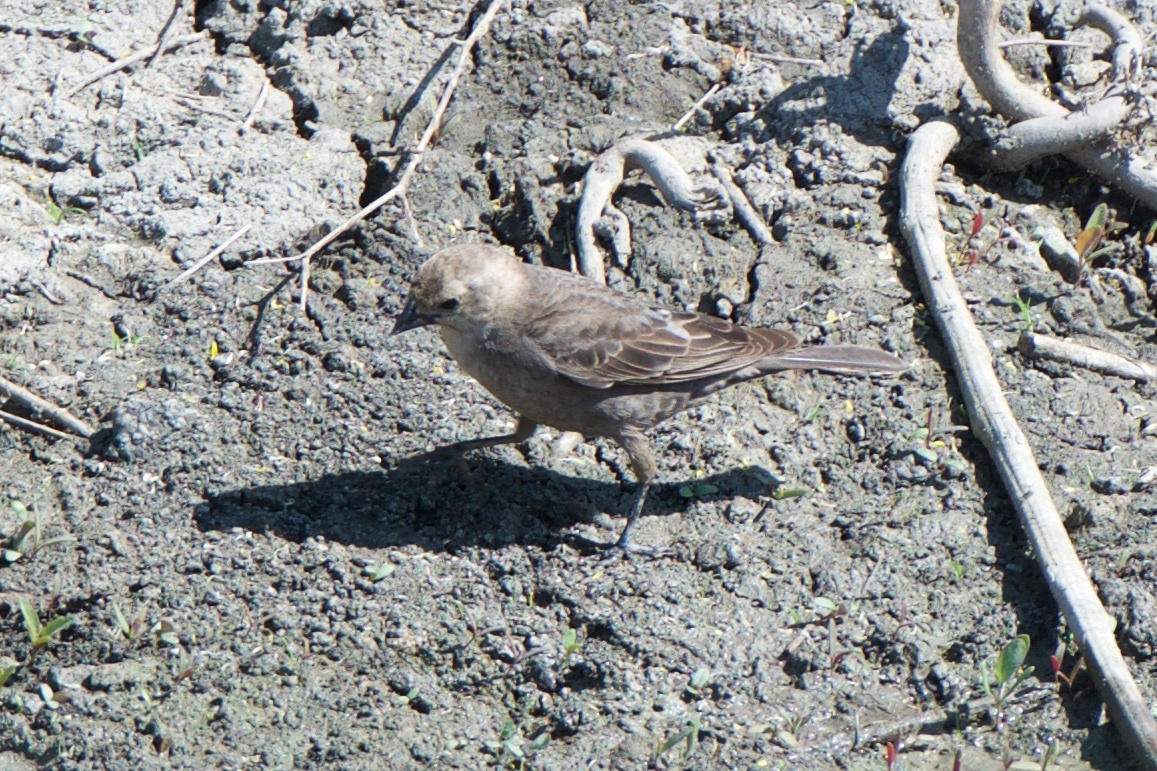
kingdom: Animalia
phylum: Chordata
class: Aves
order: Passeriformes
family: Icteridae
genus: Molothrus
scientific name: Molothrus ater
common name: Brown-headed cowbird
